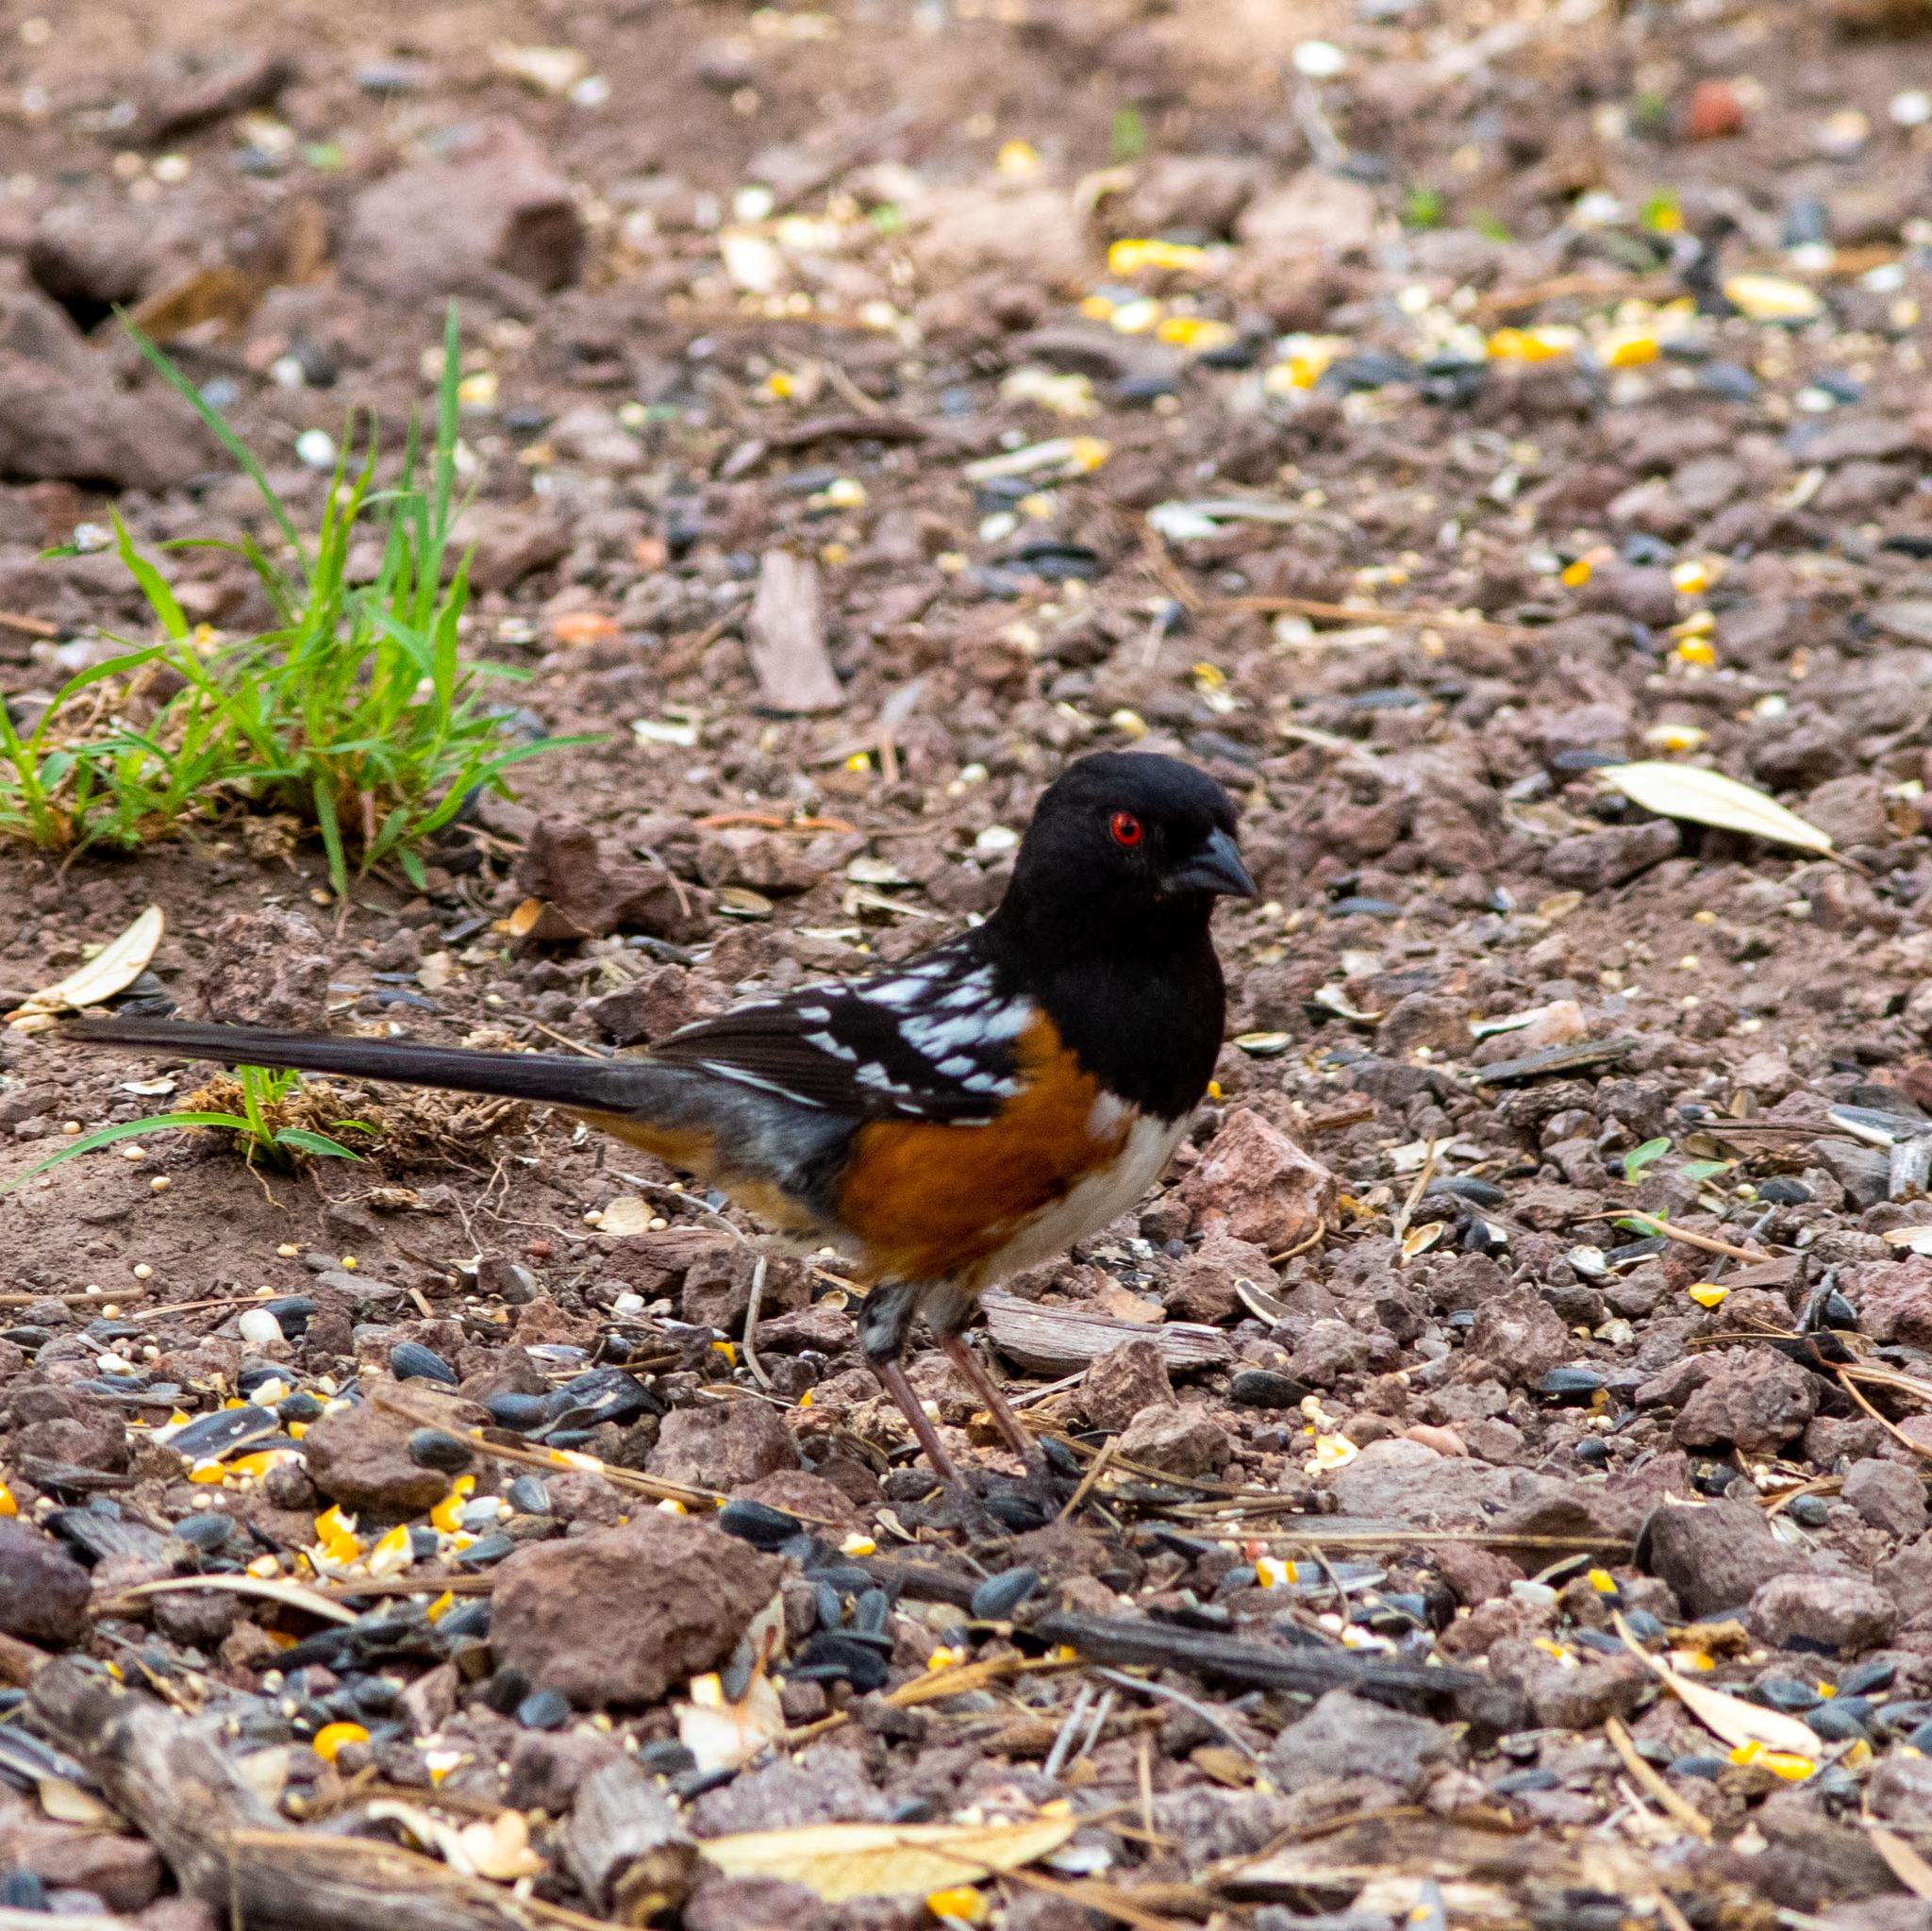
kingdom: Animalia
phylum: Chordata
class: Aves
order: Passeriformes
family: Passerellidae
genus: Pipilo
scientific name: Pipilo maculatus
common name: Spotted towhee
